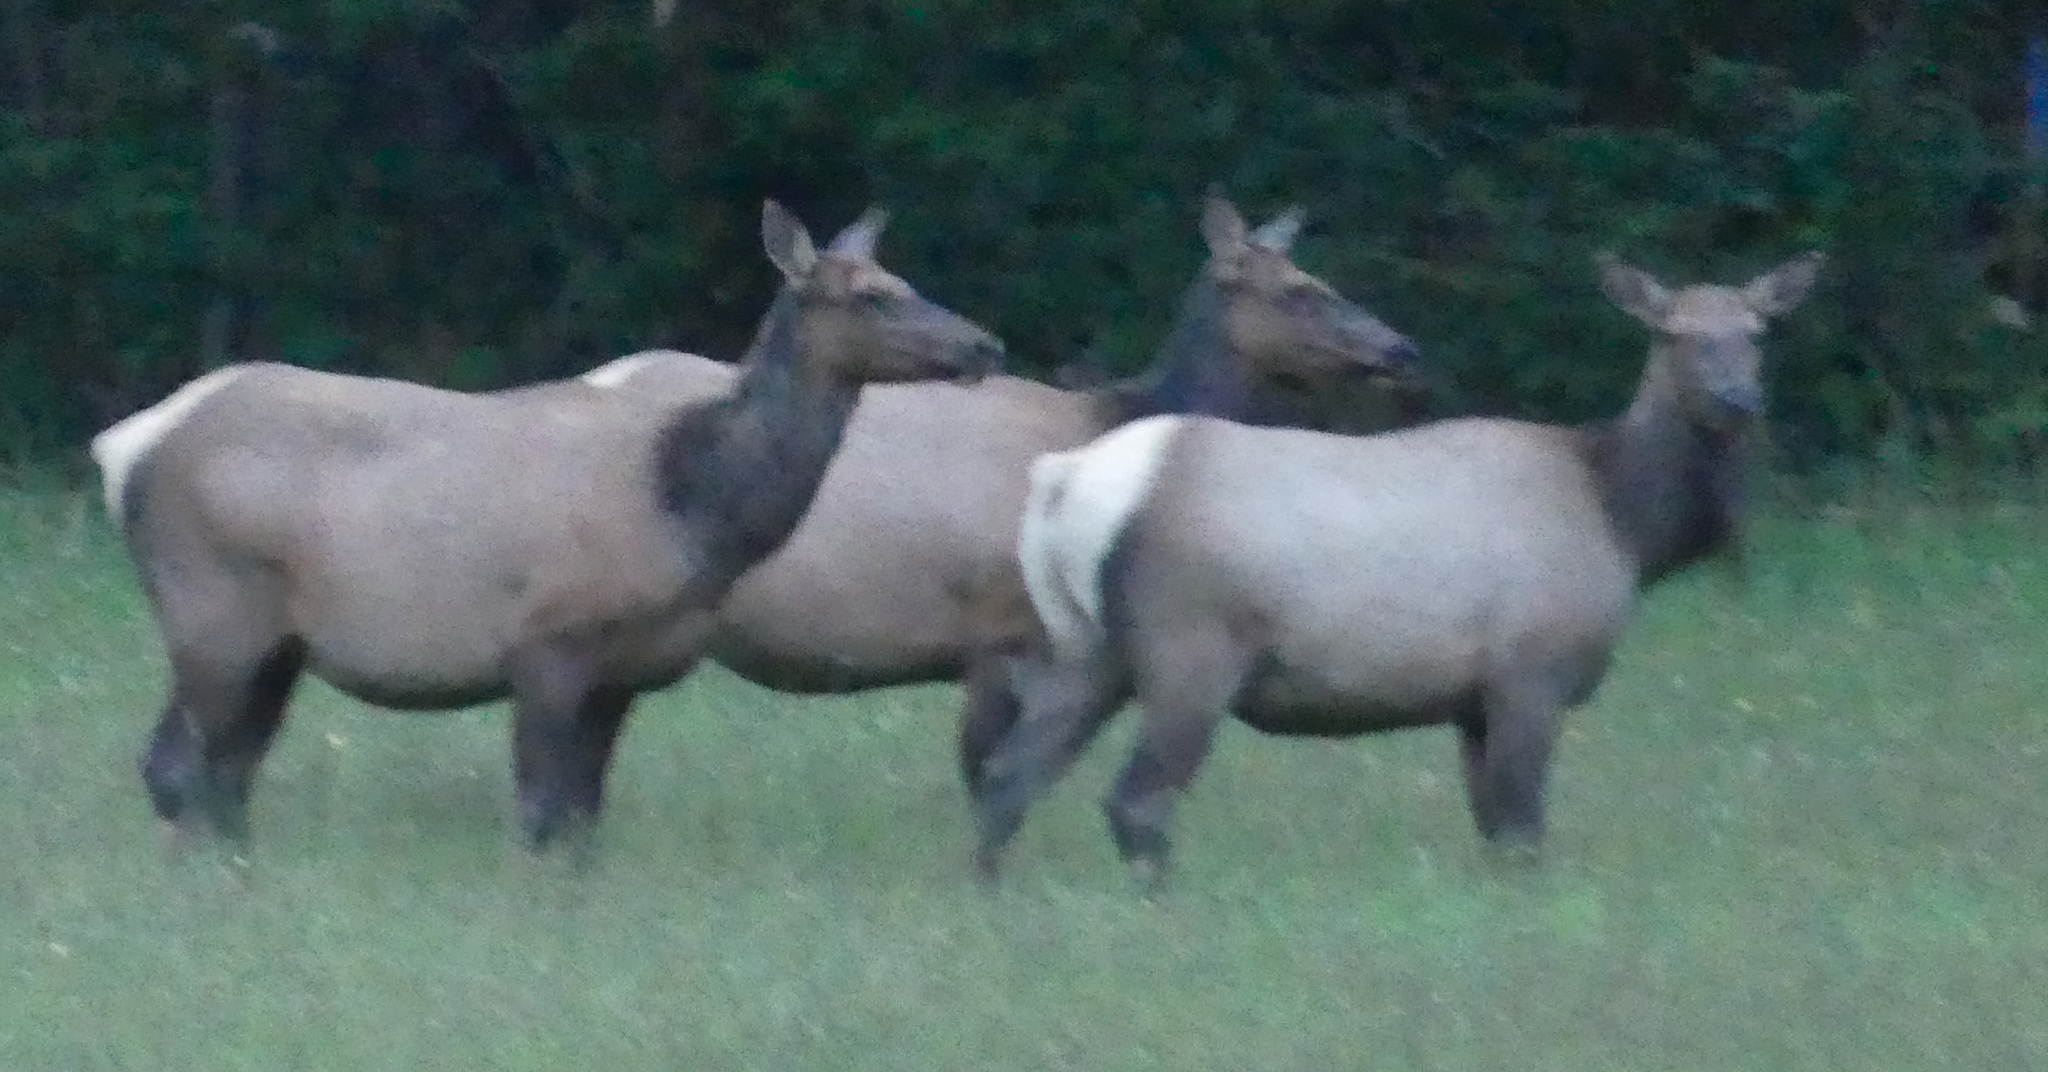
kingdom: Animalia
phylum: Chordata
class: Mammalia
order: Artiodactyla
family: Cervidae
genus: Cervus
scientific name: Cervus elaphus
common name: Red deer
